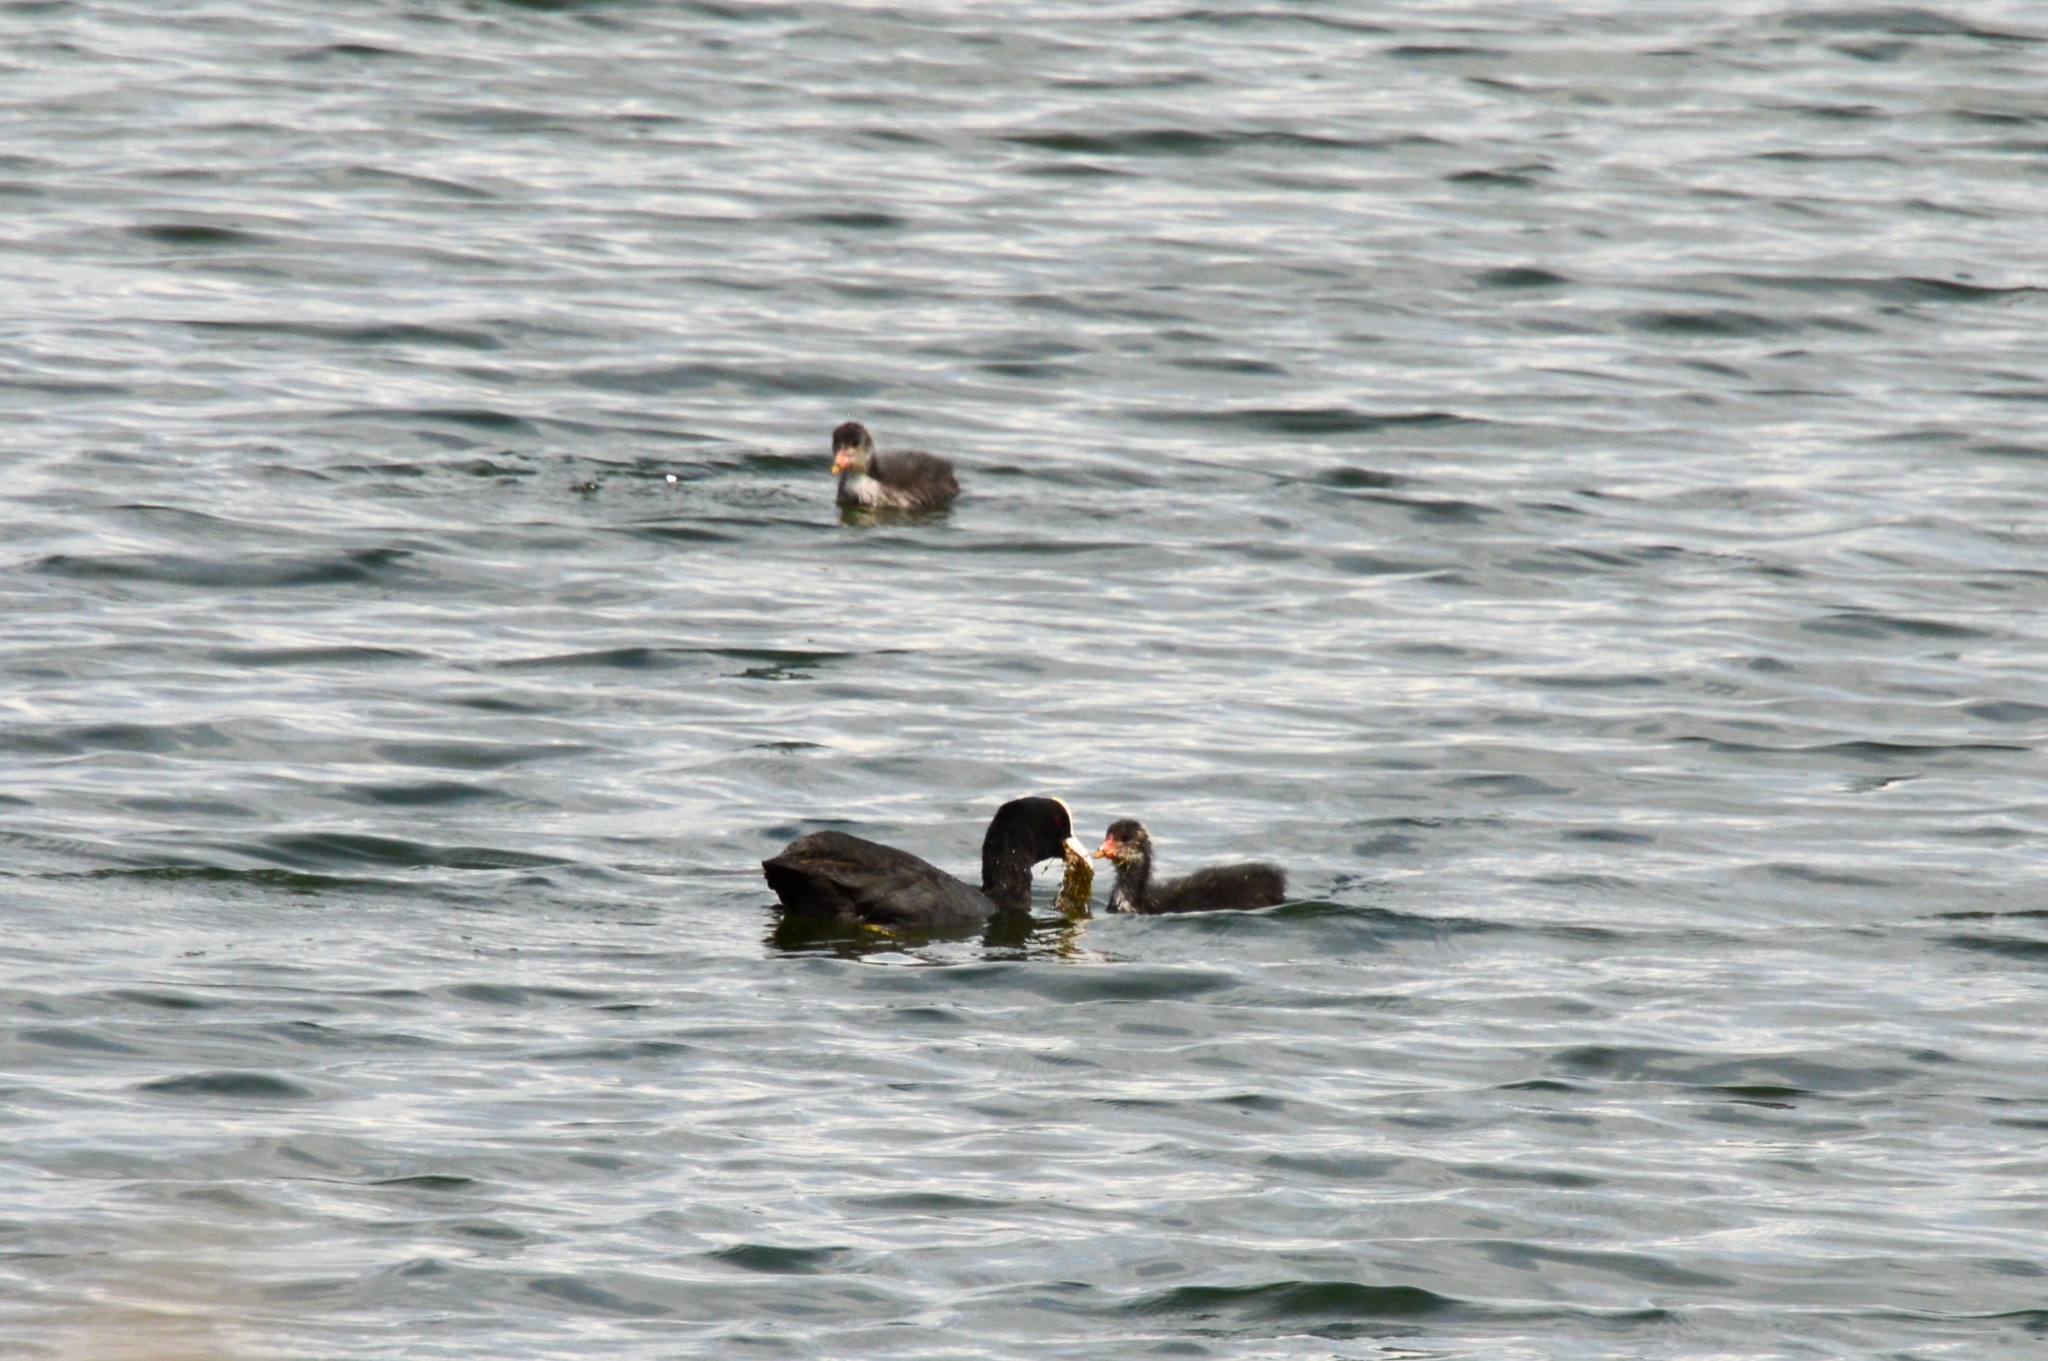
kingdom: Animalia
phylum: Chordata
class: Aves
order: Gruiformes
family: Rallidae
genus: Fulica
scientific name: Fulica atra
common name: Eurasian coot
